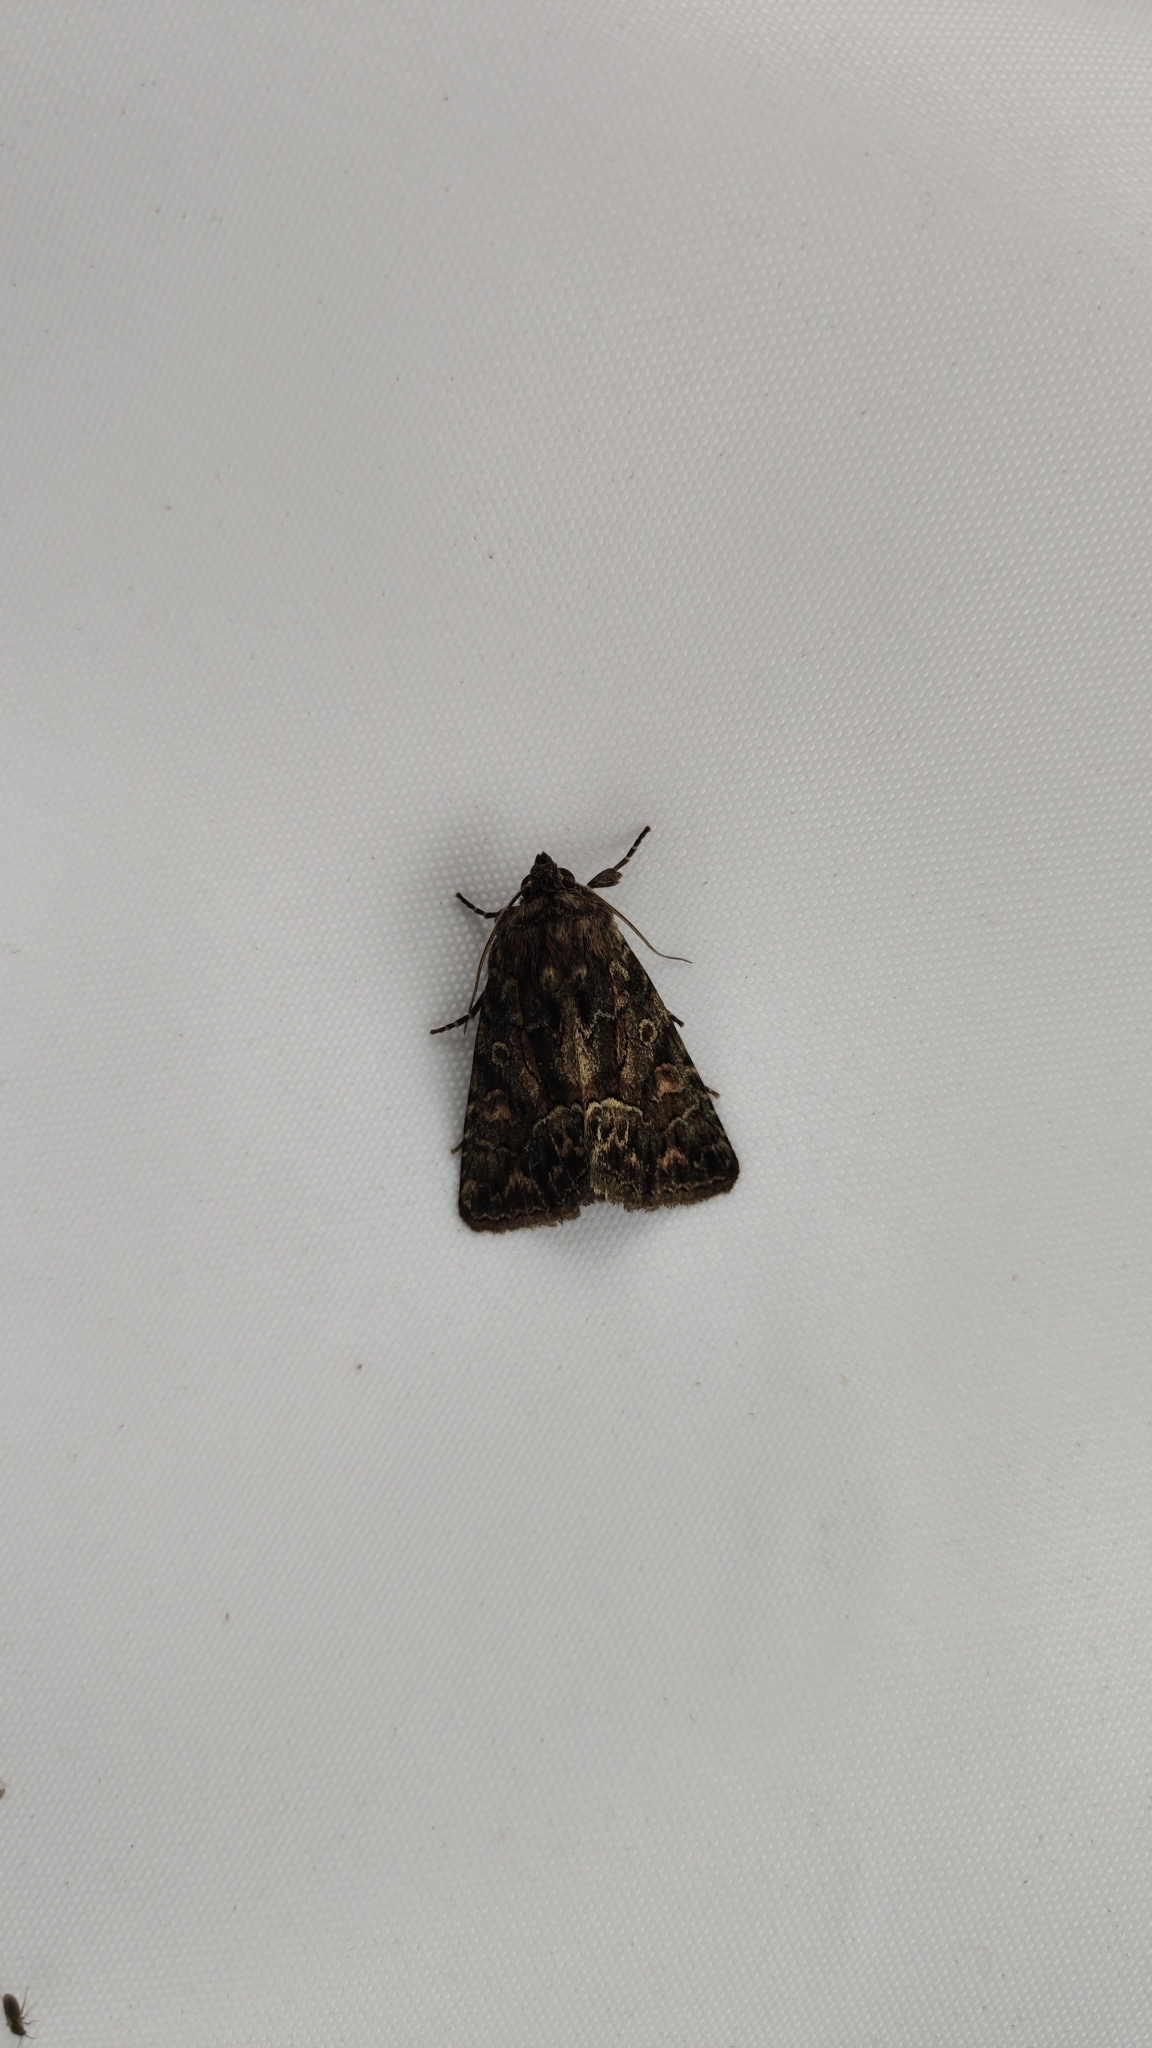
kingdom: Animalia
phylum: Arthropoda
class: Insecta
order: Lepidoptera
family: Noctuidae
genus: Thalpophila
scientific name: Thalpophila matura
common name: Straw underwing
